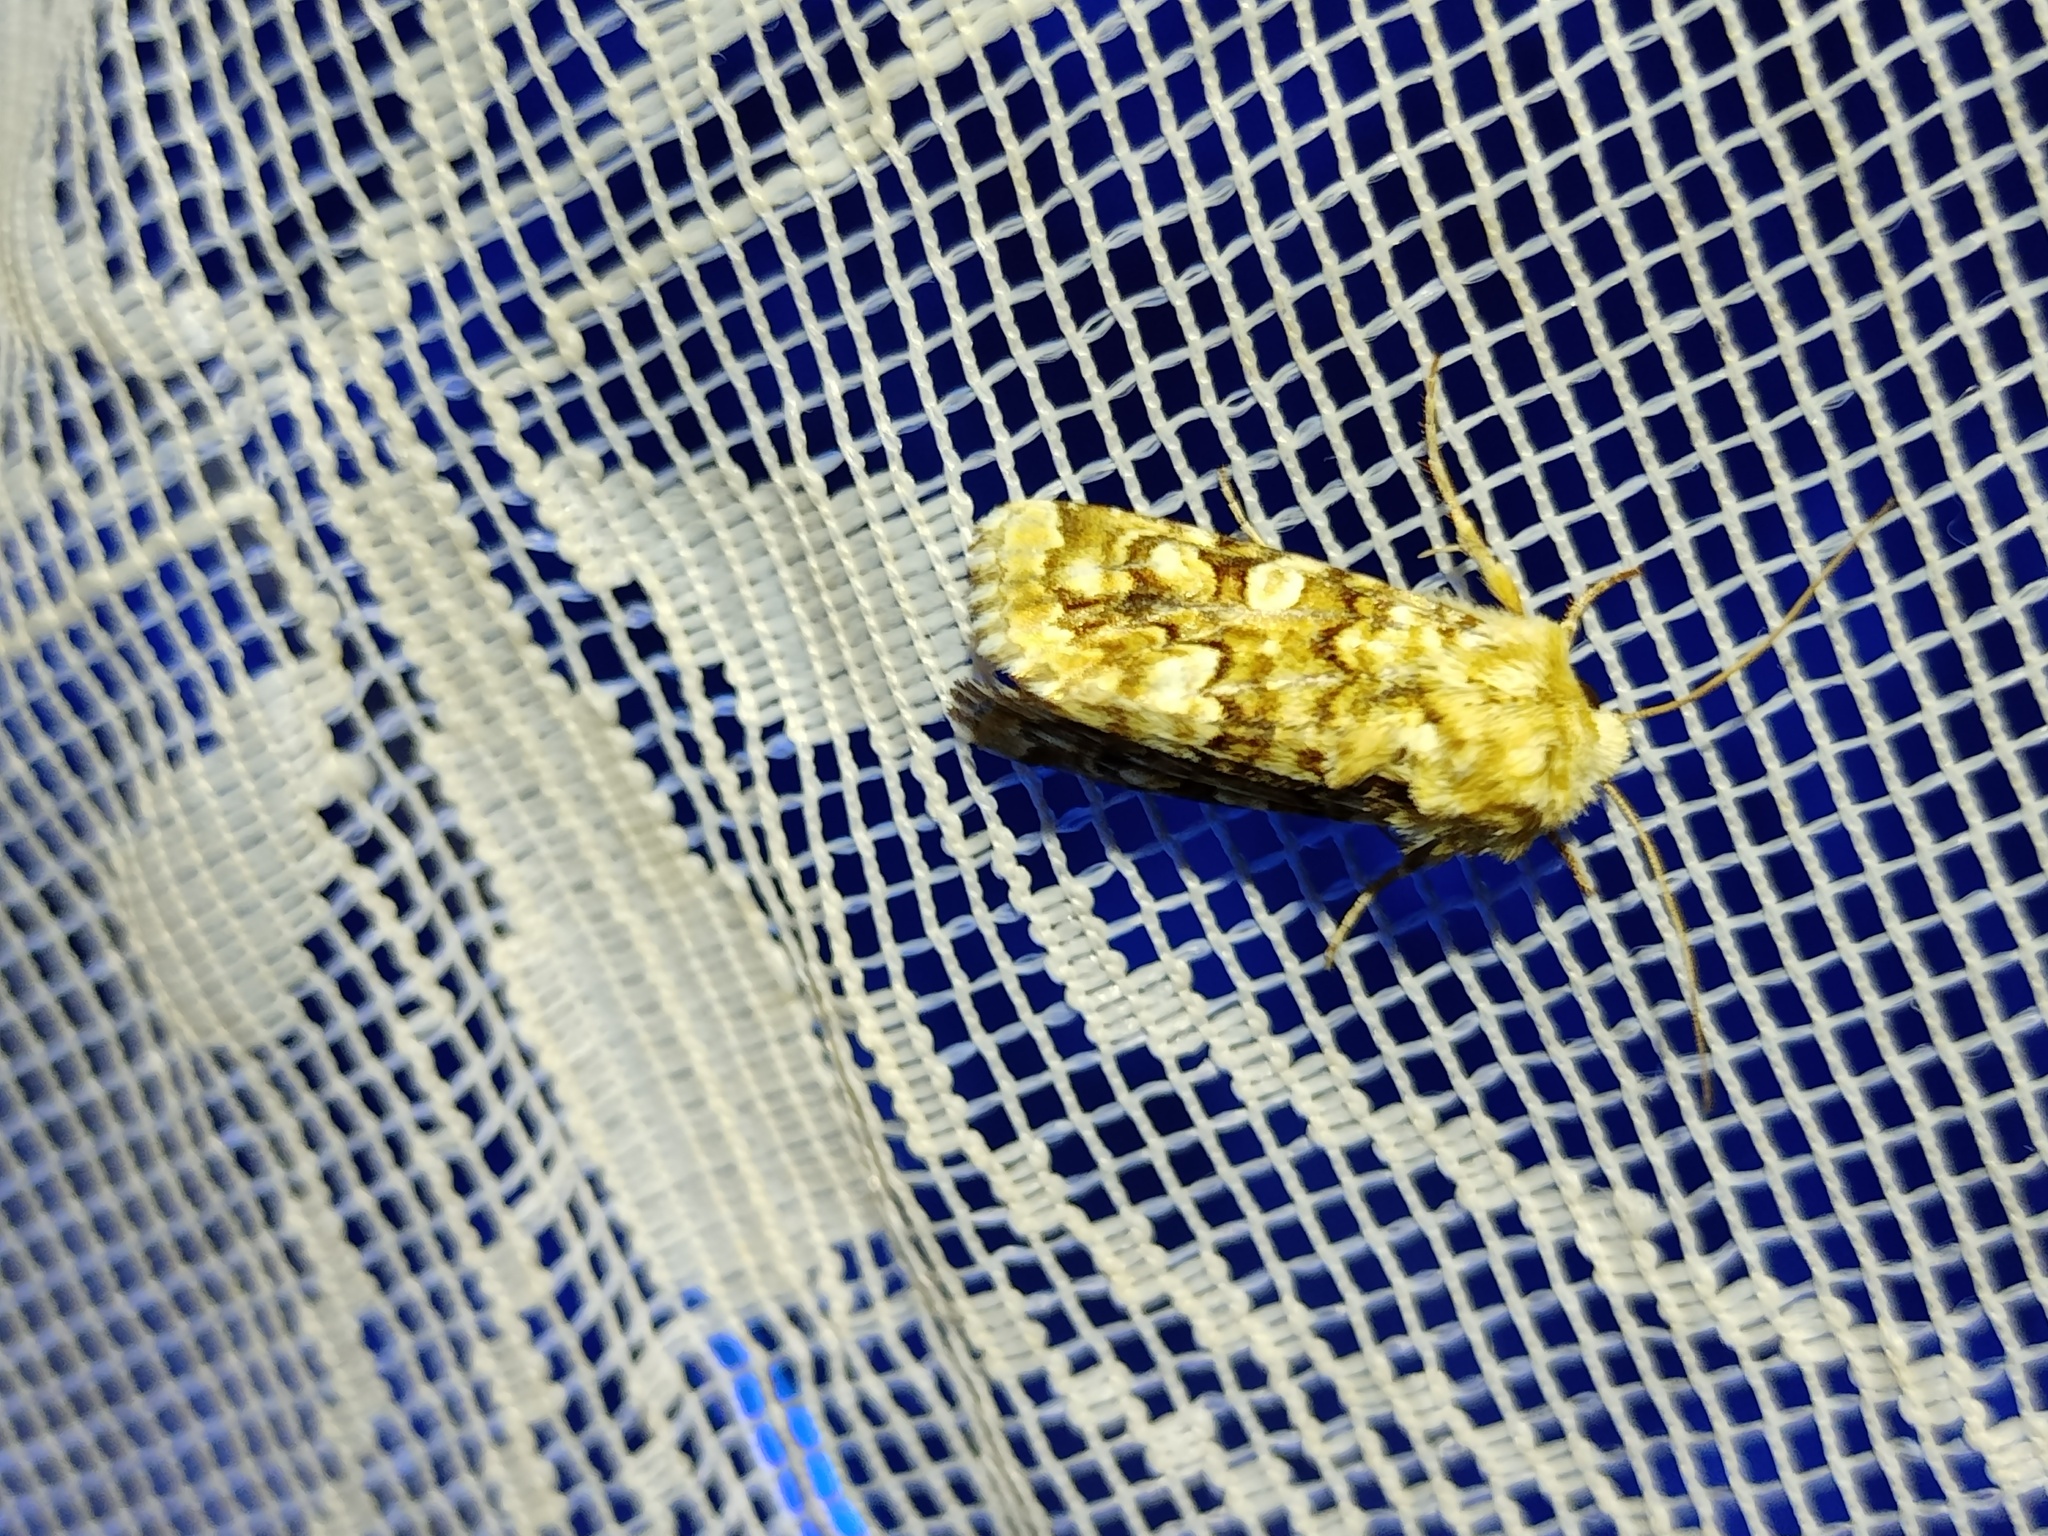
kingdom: Animalia
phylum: Arthropoda
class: Insecta
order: Lepidoptera
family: Noctuidae
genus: Hadena
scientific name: Hadena irregularis
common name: Vipers bugloss
